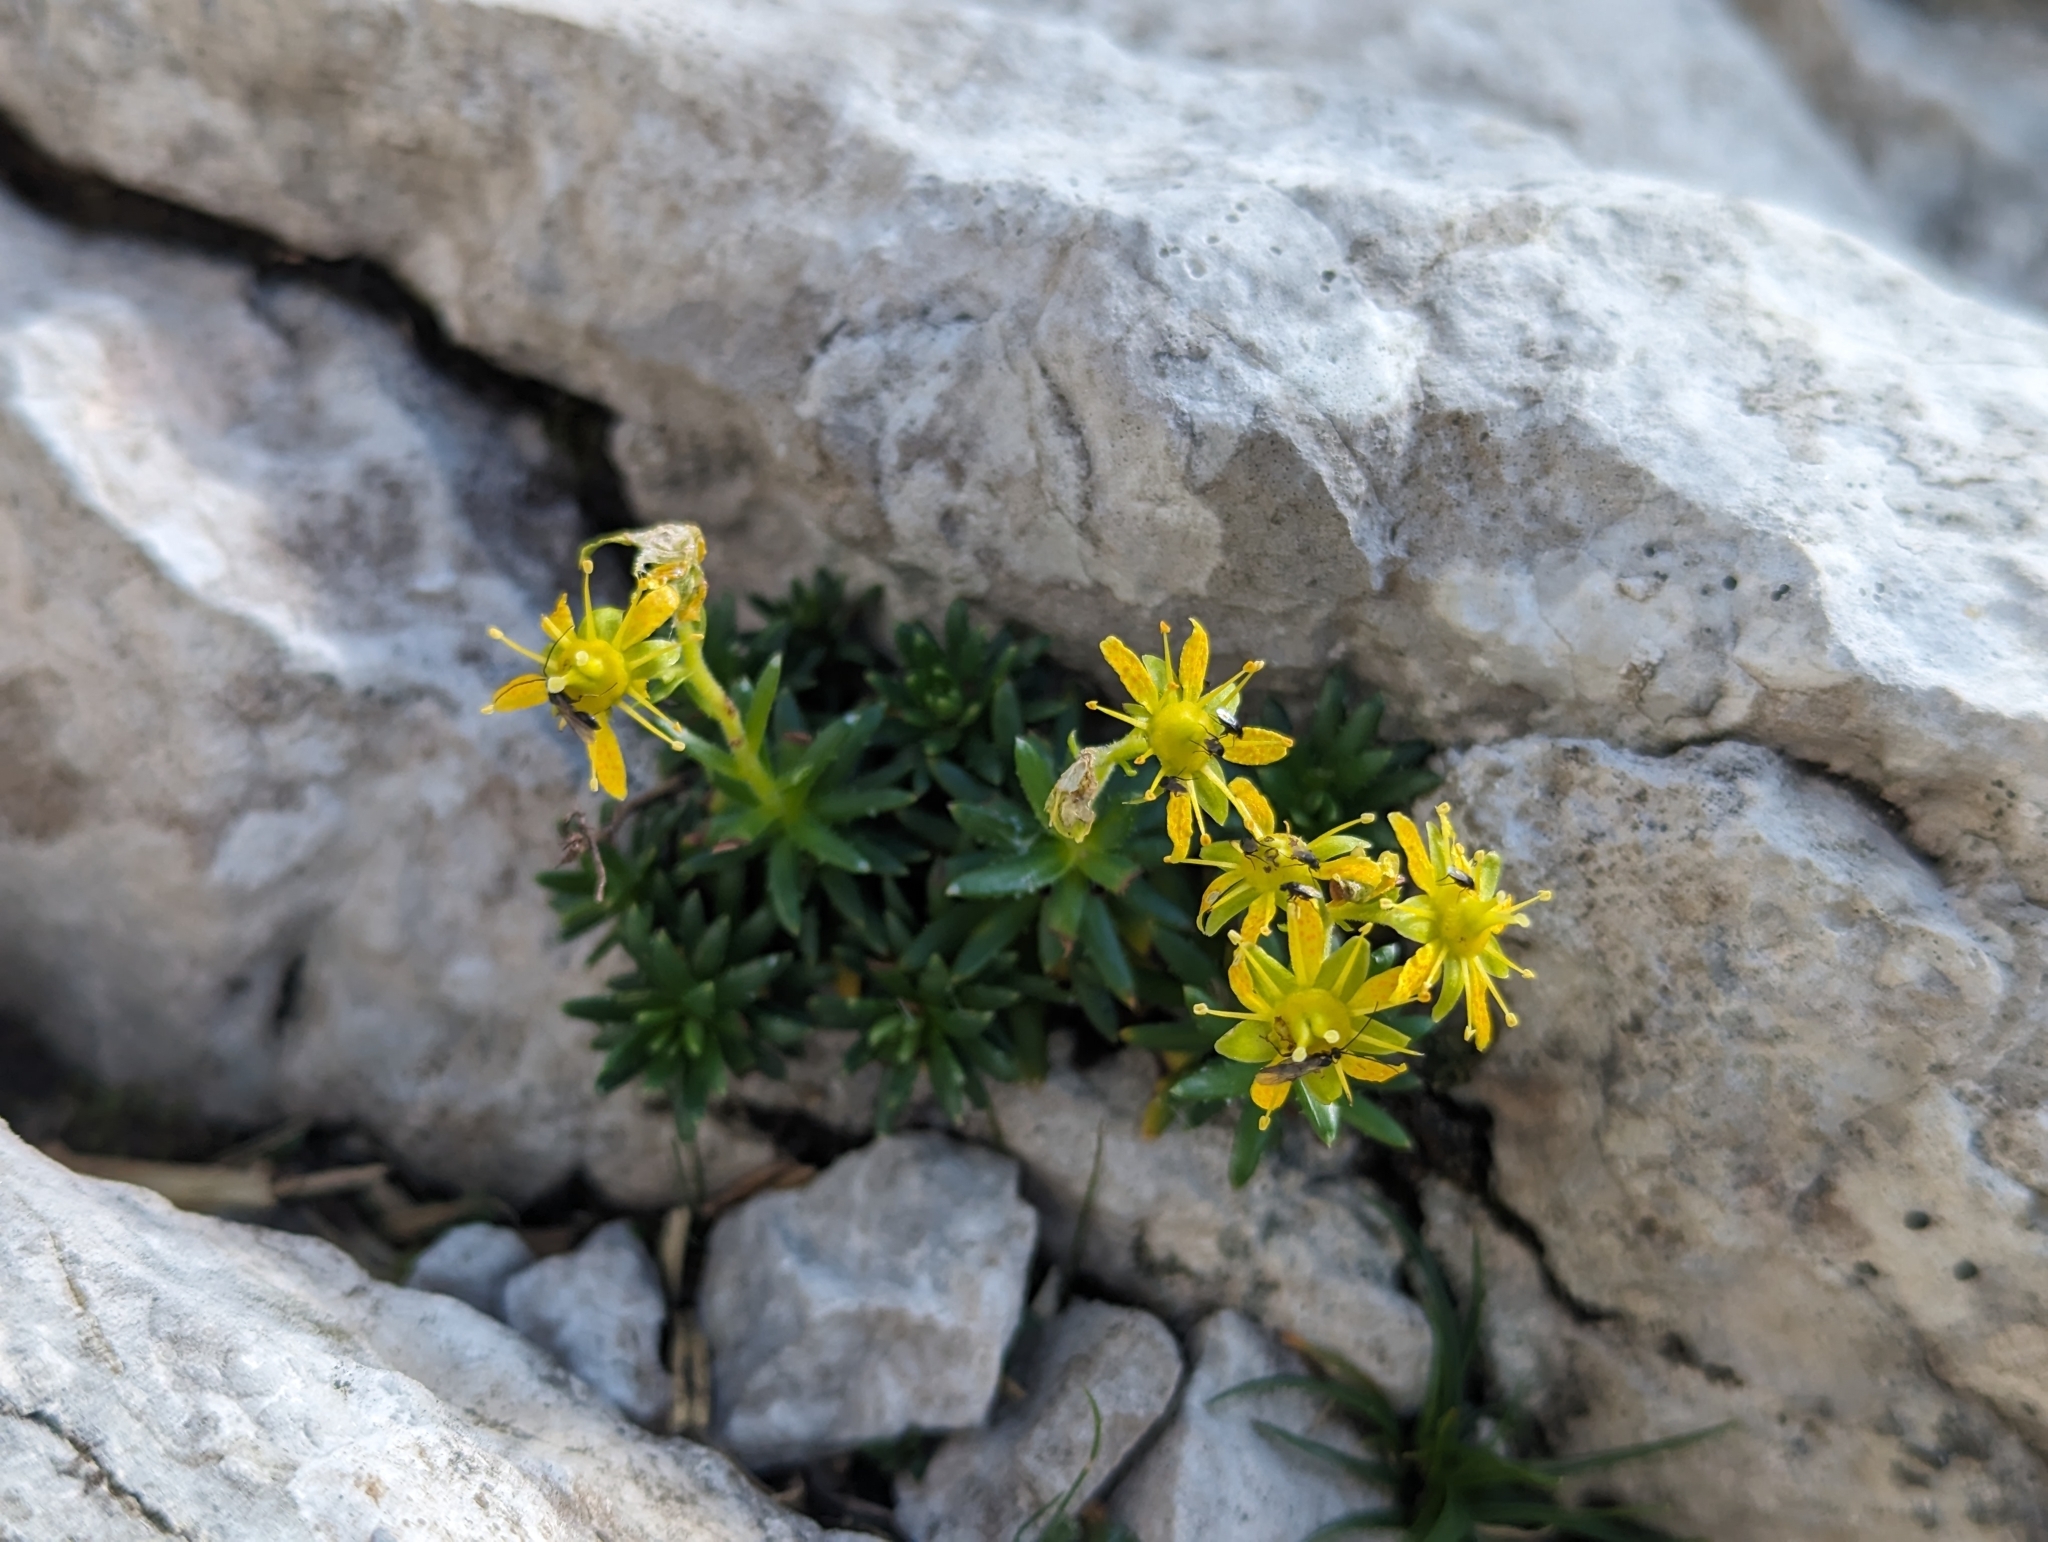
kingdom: Plantae
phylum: Tracheophyta
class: Magnoliopsida
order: Saxifragales
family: Saxifragaceae
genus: Saxifraga
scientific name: Saxifraga aizoides
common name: Yellow mountain saxifrage
